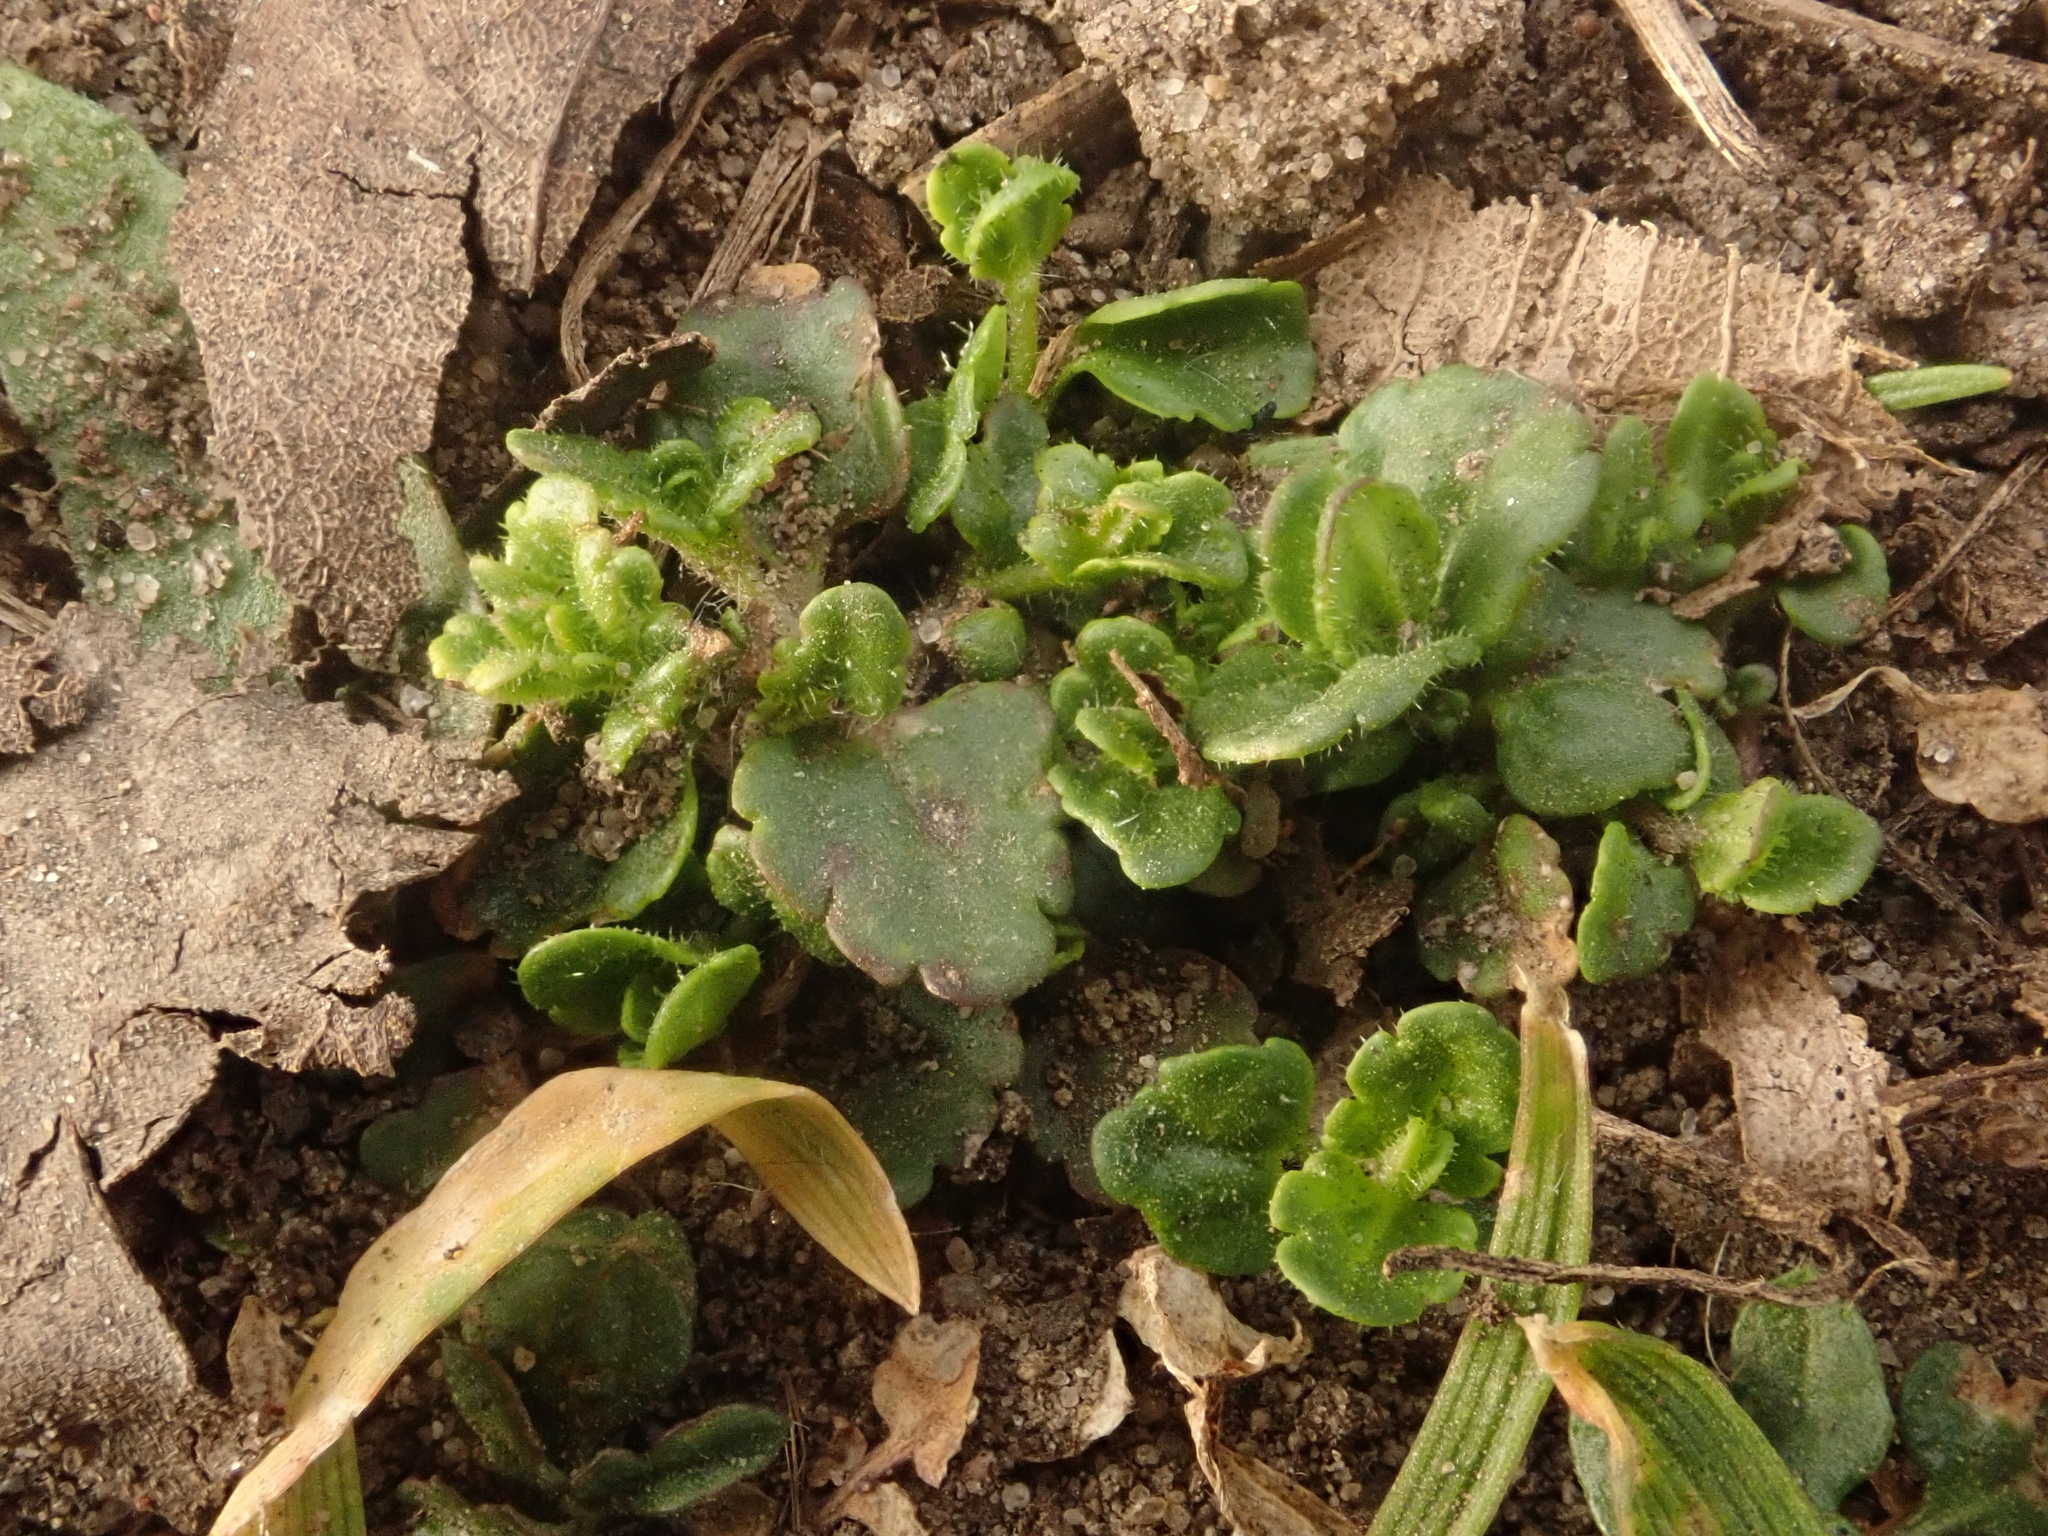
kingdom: Plantae
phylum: Tracheophyta
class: Magnoliopsida
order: Lamiales
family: Plantaginaceae
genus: Veronica
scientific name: Veronica arvensis
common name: Corn speedwell
